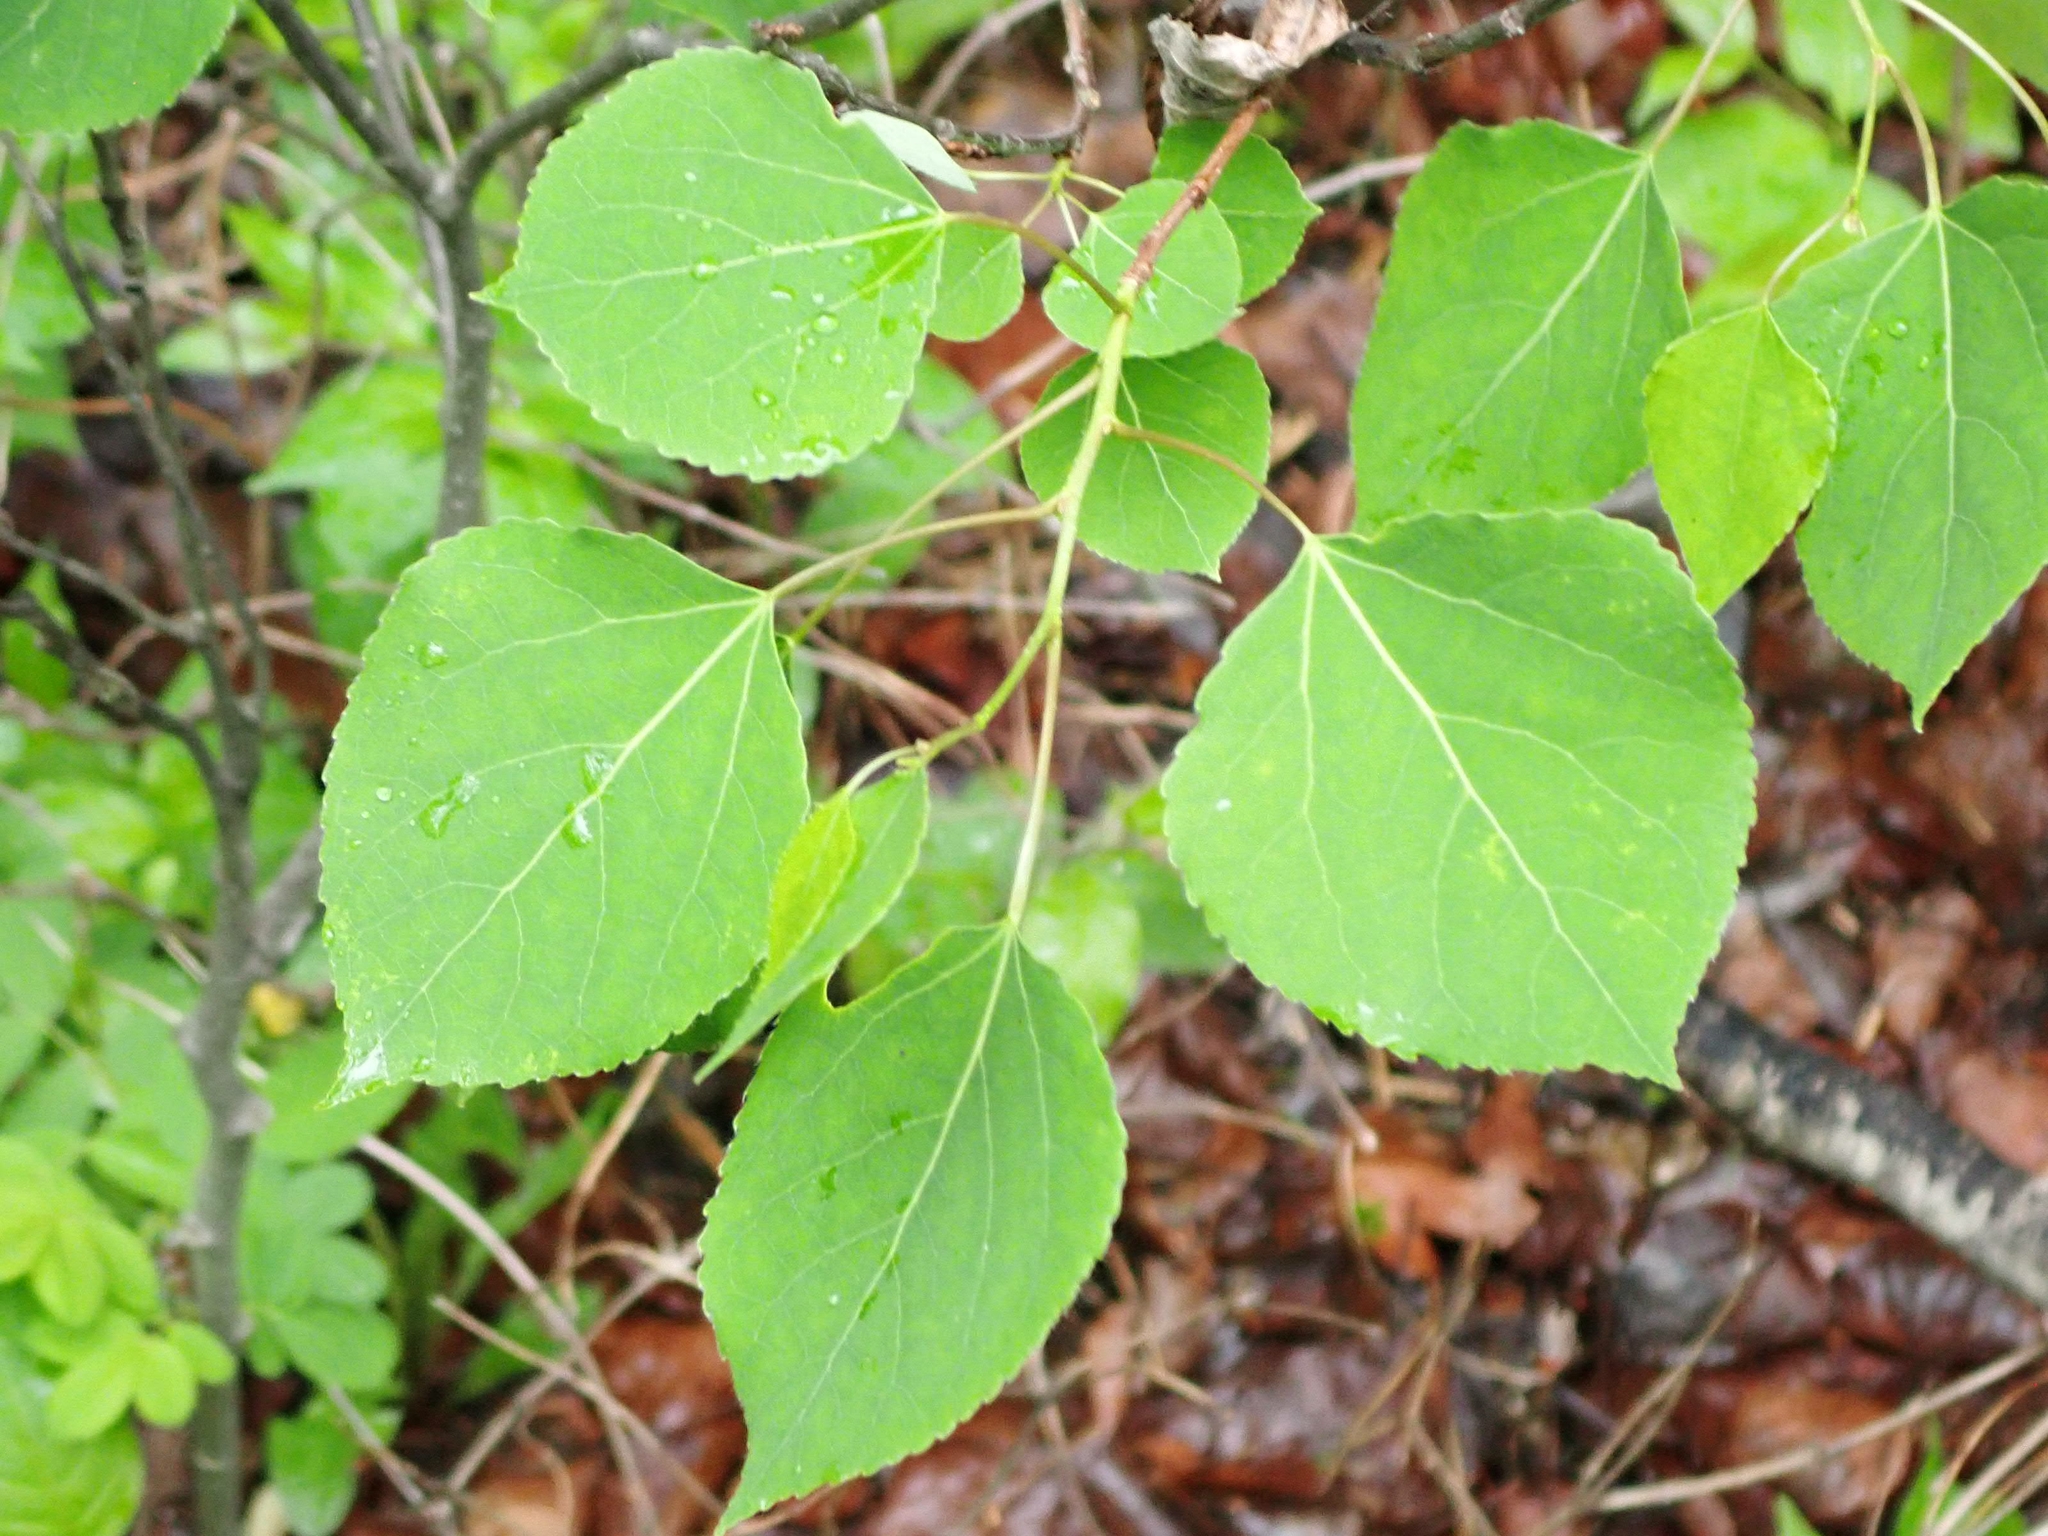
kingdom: Plantae
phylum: Tracheophyta
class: Magnoliopsida
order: Malpighiales
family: Salicaceae
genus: Populus
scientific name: Populus tremuloides
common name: Quaking aspen
